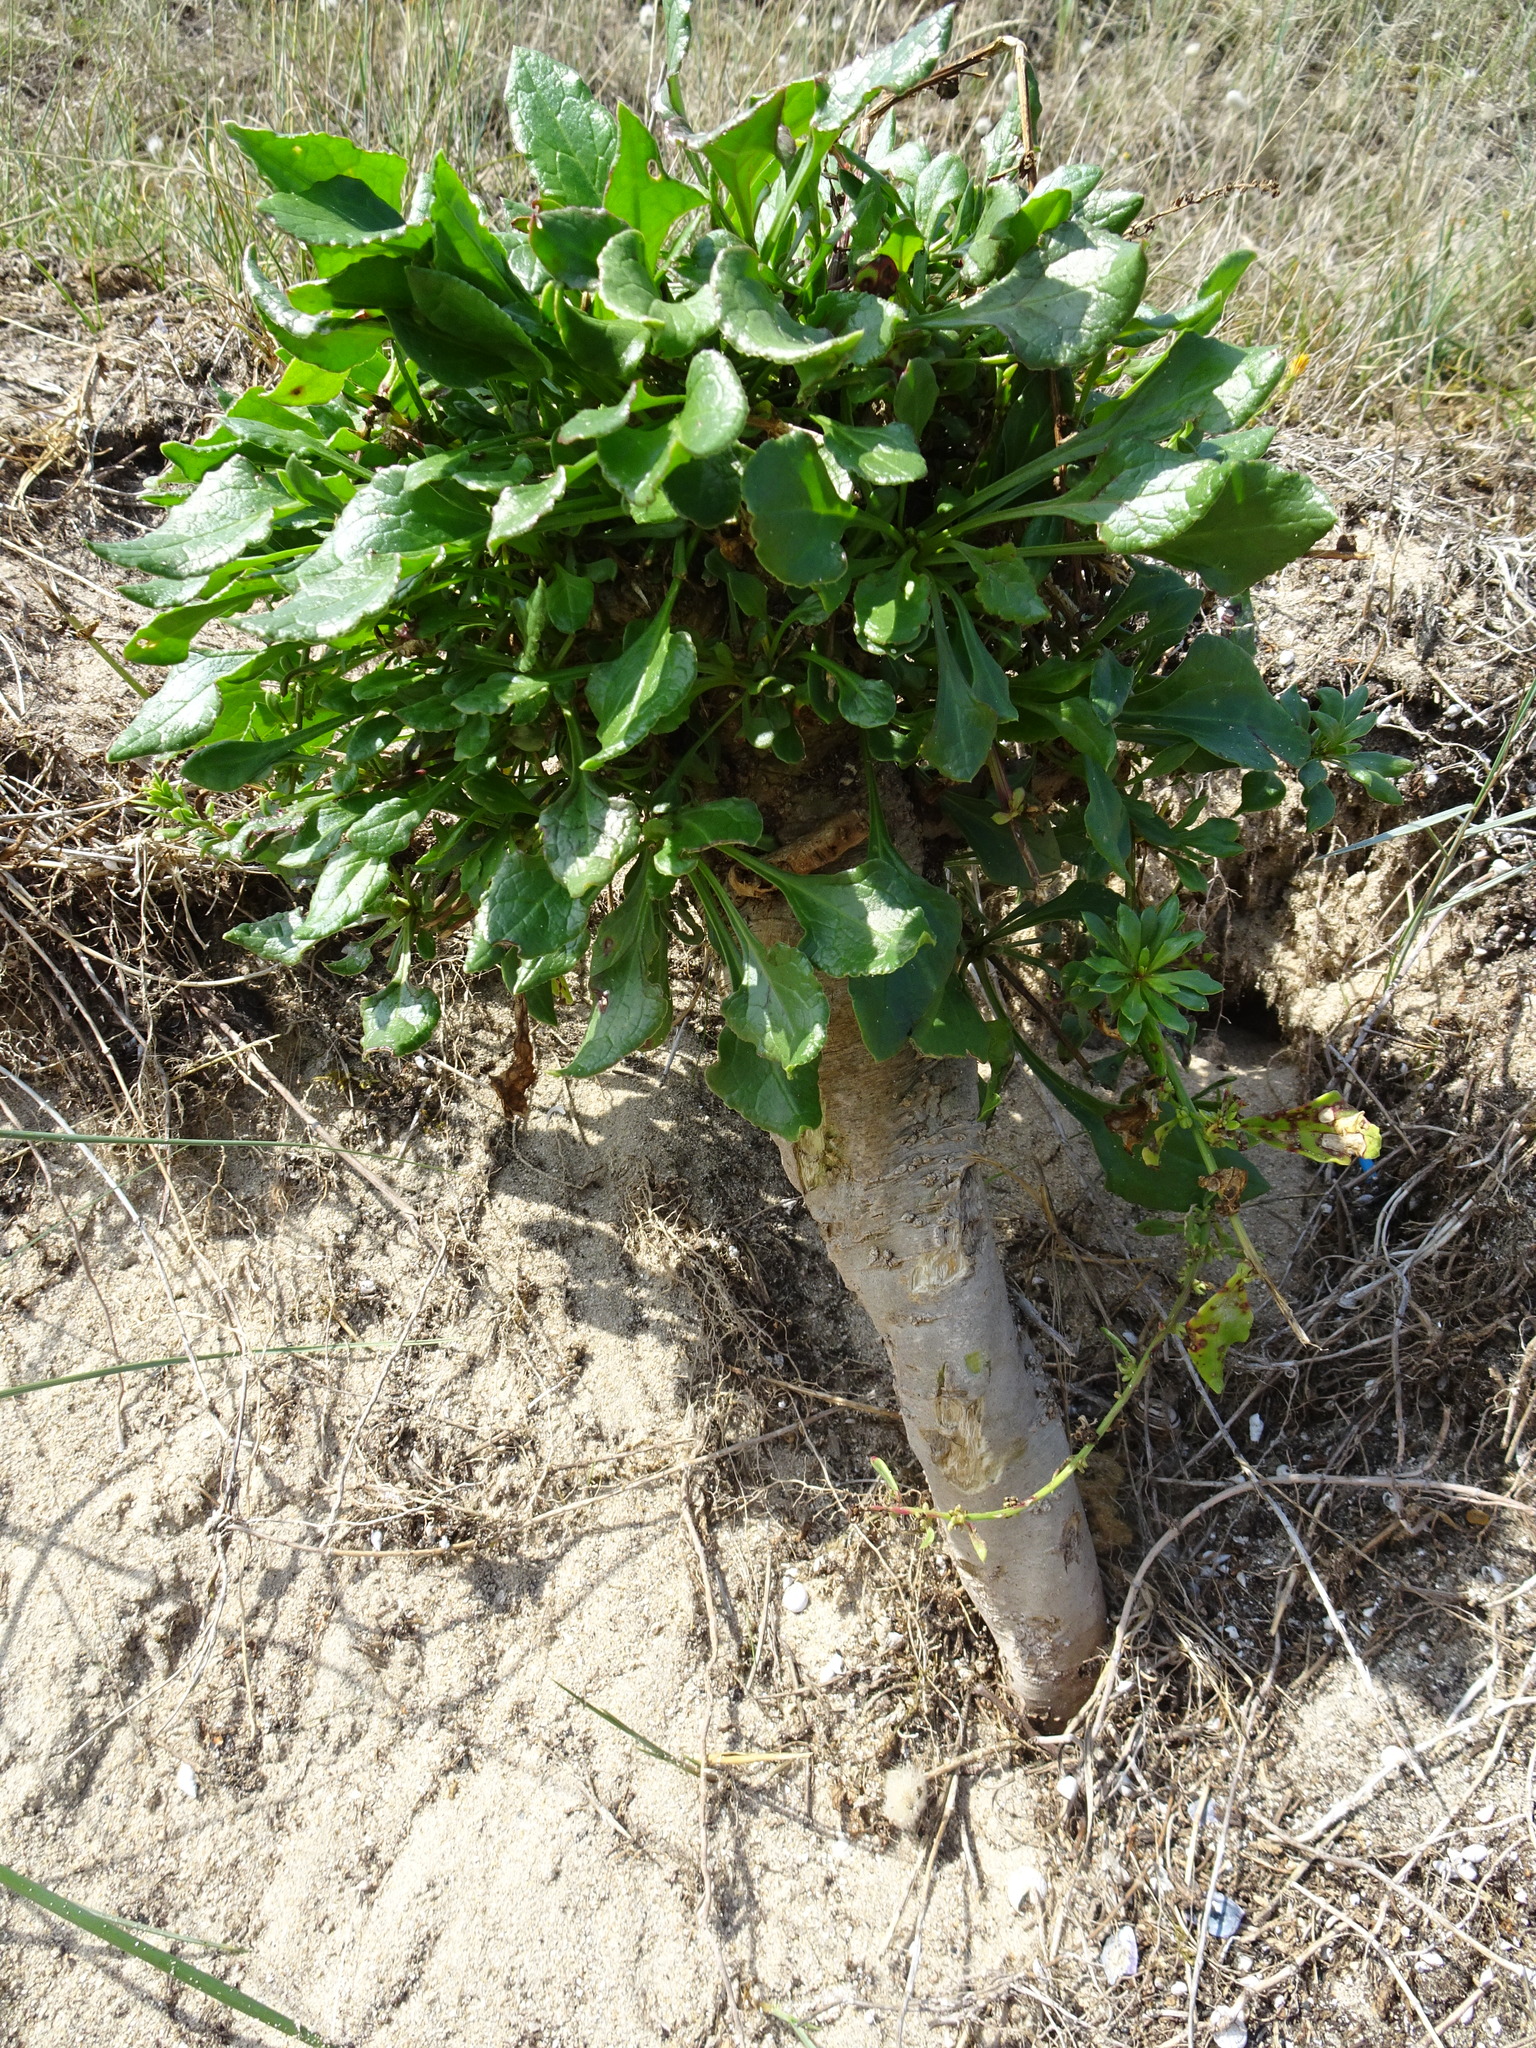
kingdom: Plantae
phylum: Tracheophyta
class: Magnoliopsida
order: Caryophyllales
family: Amaranthaceae
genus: Beta
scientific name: Beta vulgaris
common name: Beet
